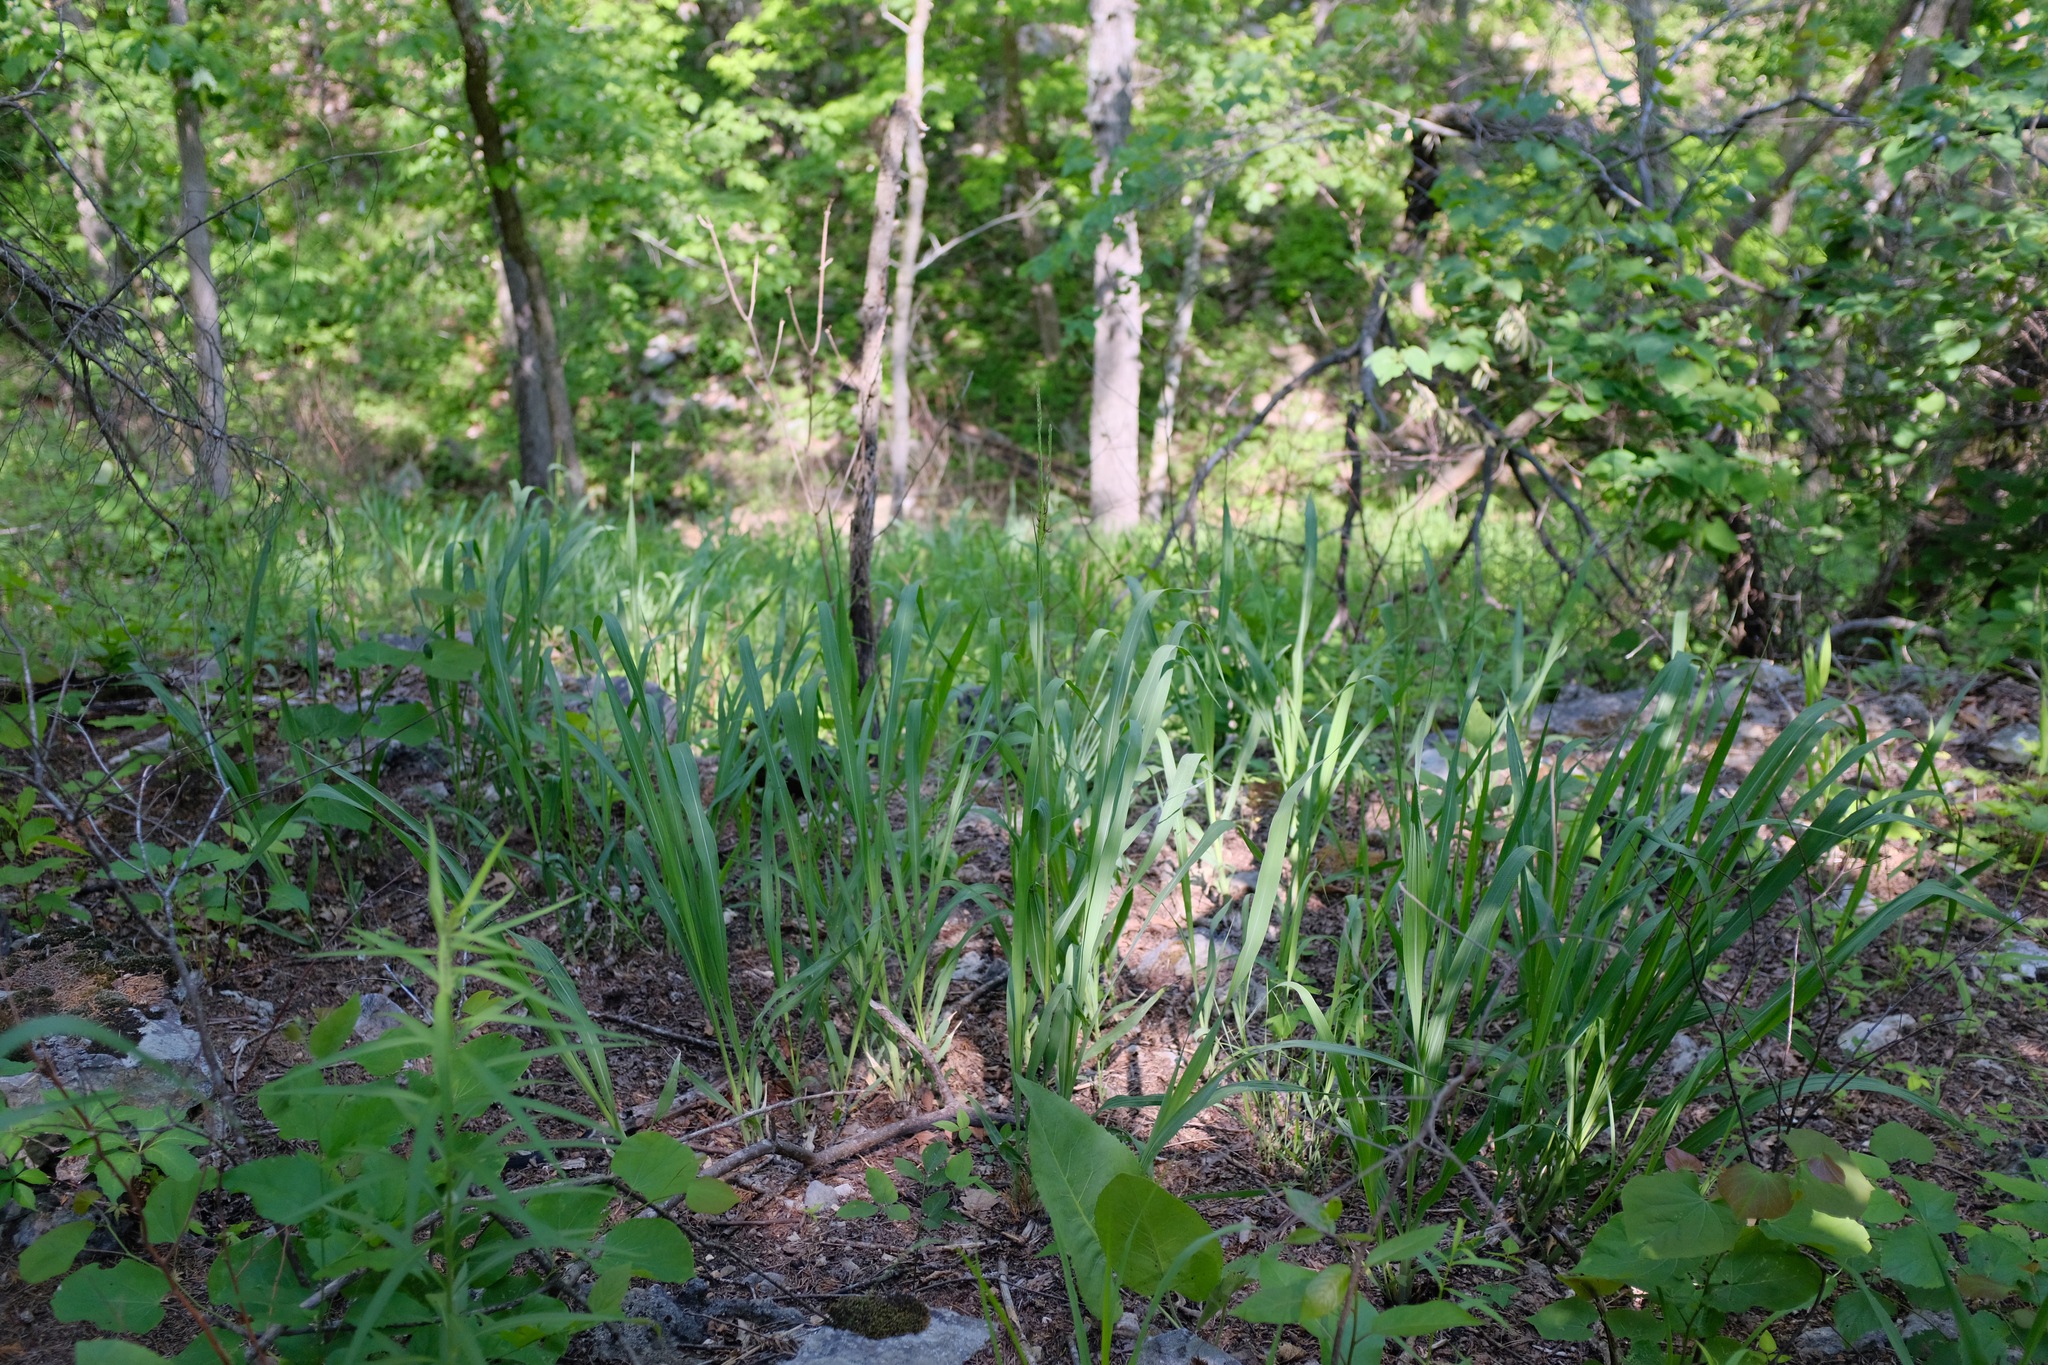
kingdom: Plantae
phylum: Tracheophyta
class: Liliopsida
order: Poales
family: Poaceae
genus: Tripsacum
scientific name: Tripsacum dactyloides
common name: Buffalo-grass
